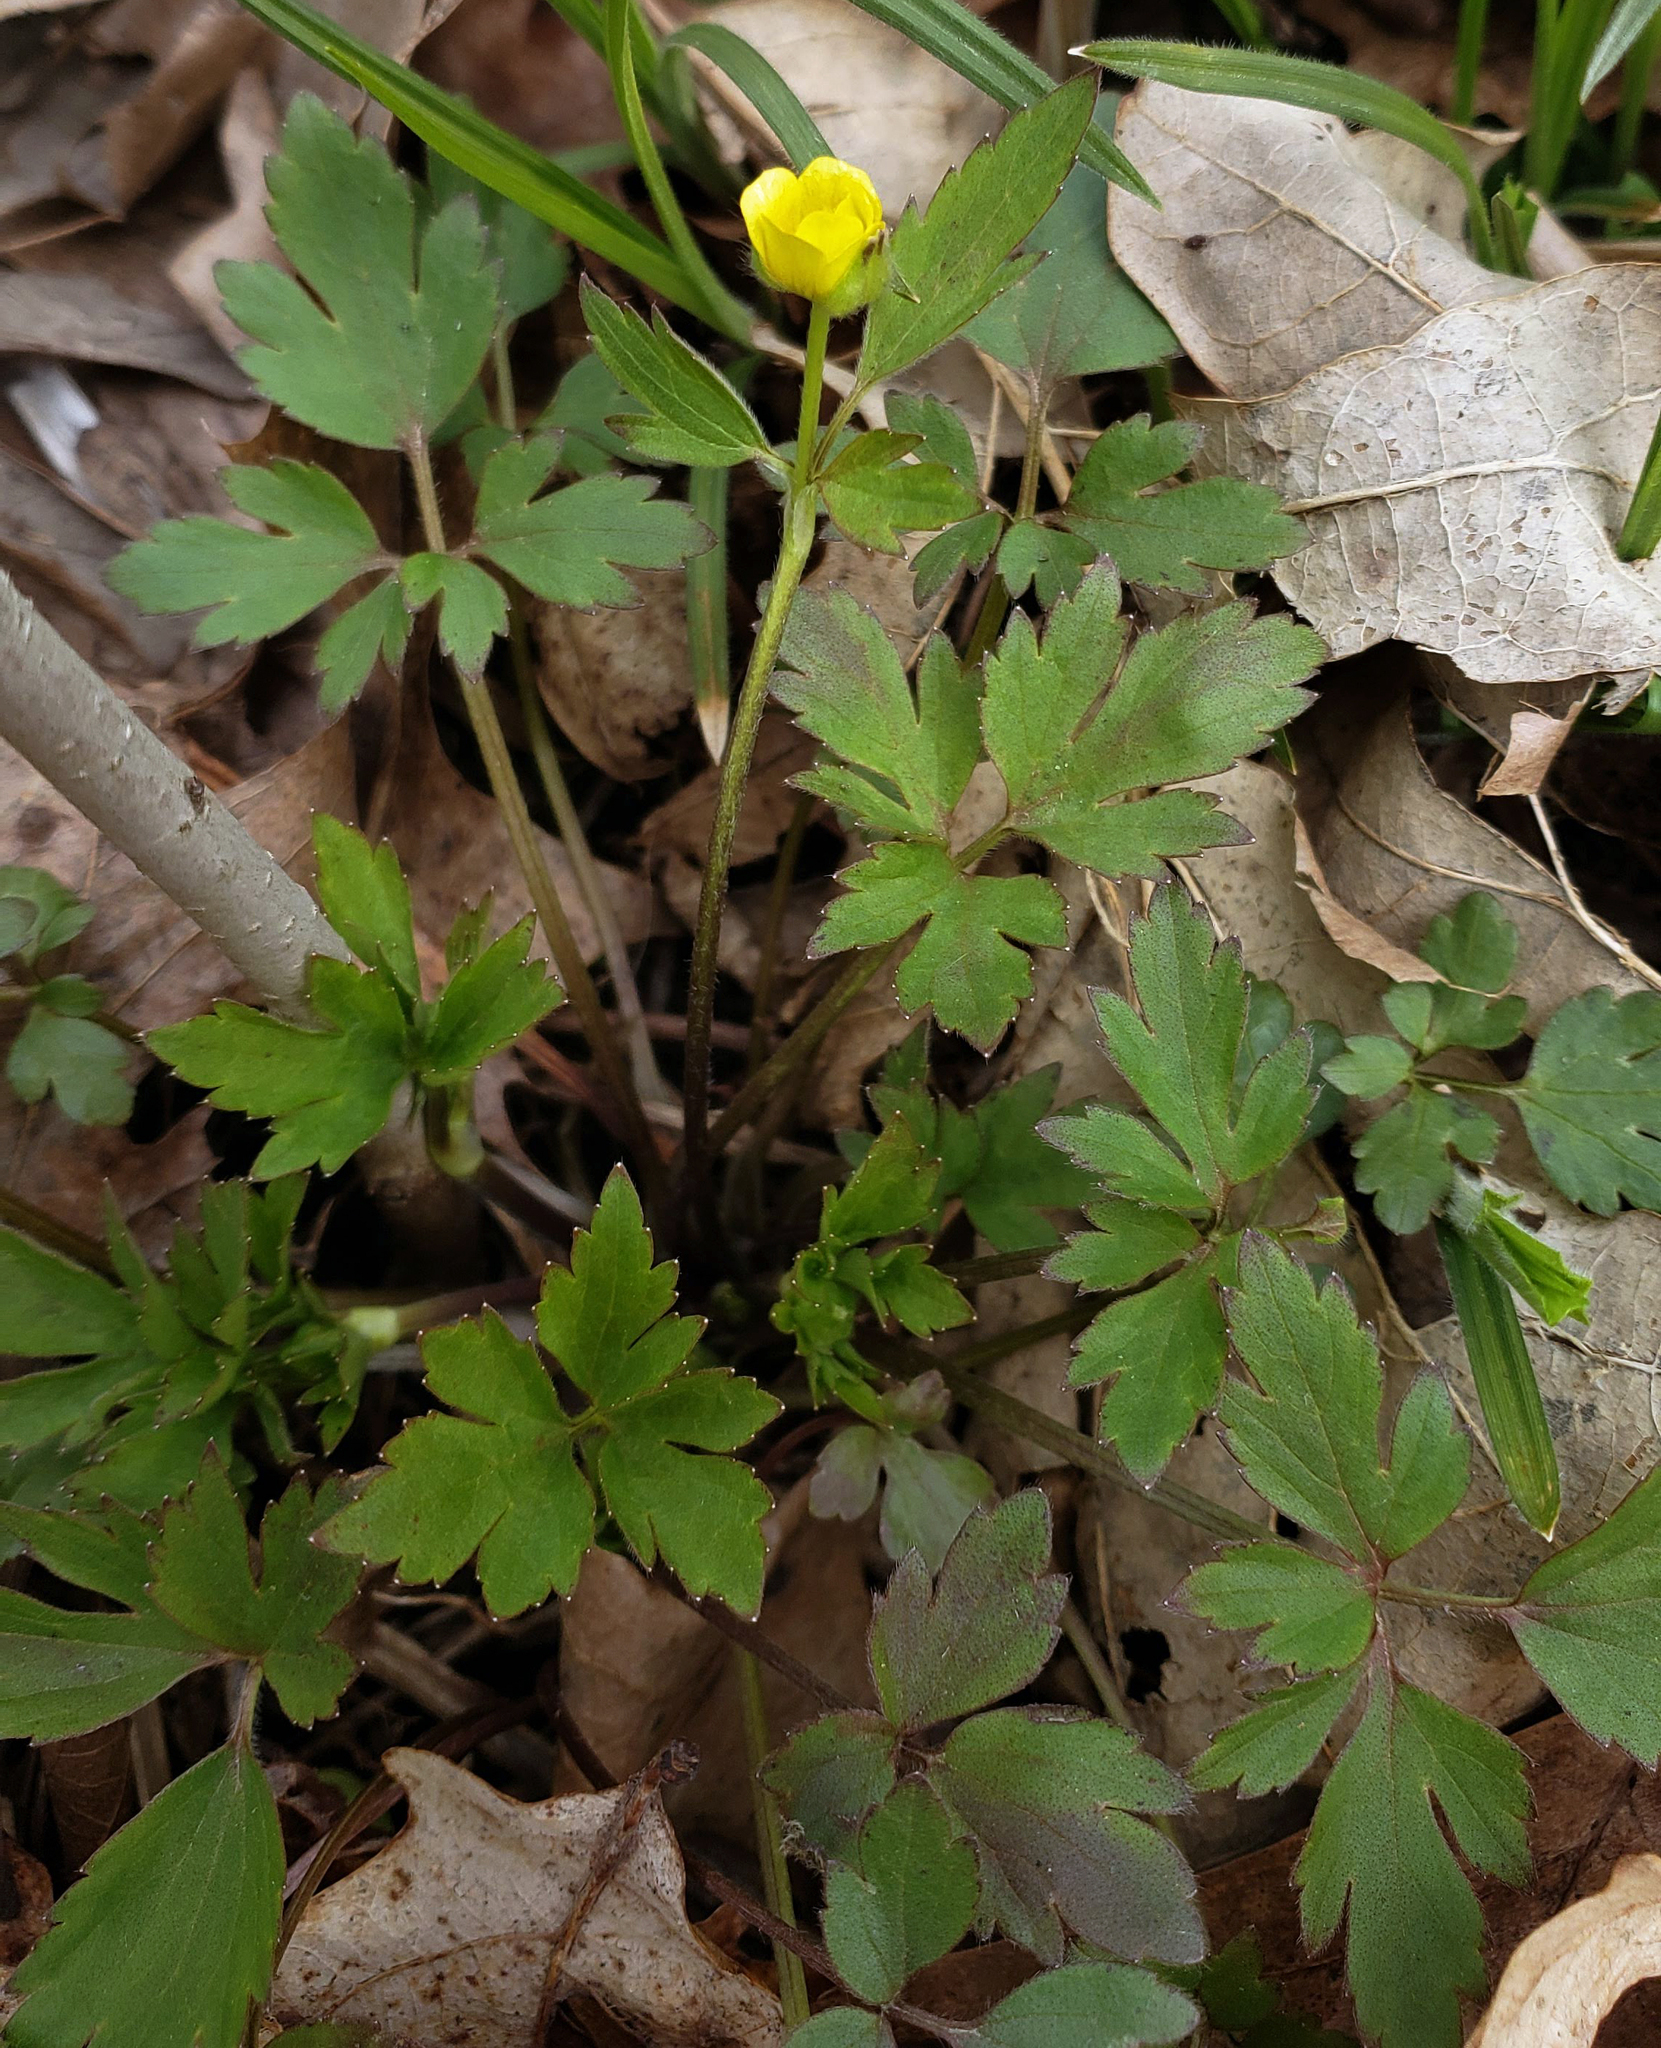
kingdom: Plantae
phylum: Tracheophyta
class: Magnoliopsida
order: Ranunculales
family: Ranunculaceae
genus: Ranunculus
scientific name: Ranunculus hispidus
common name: Bristly buttercup
